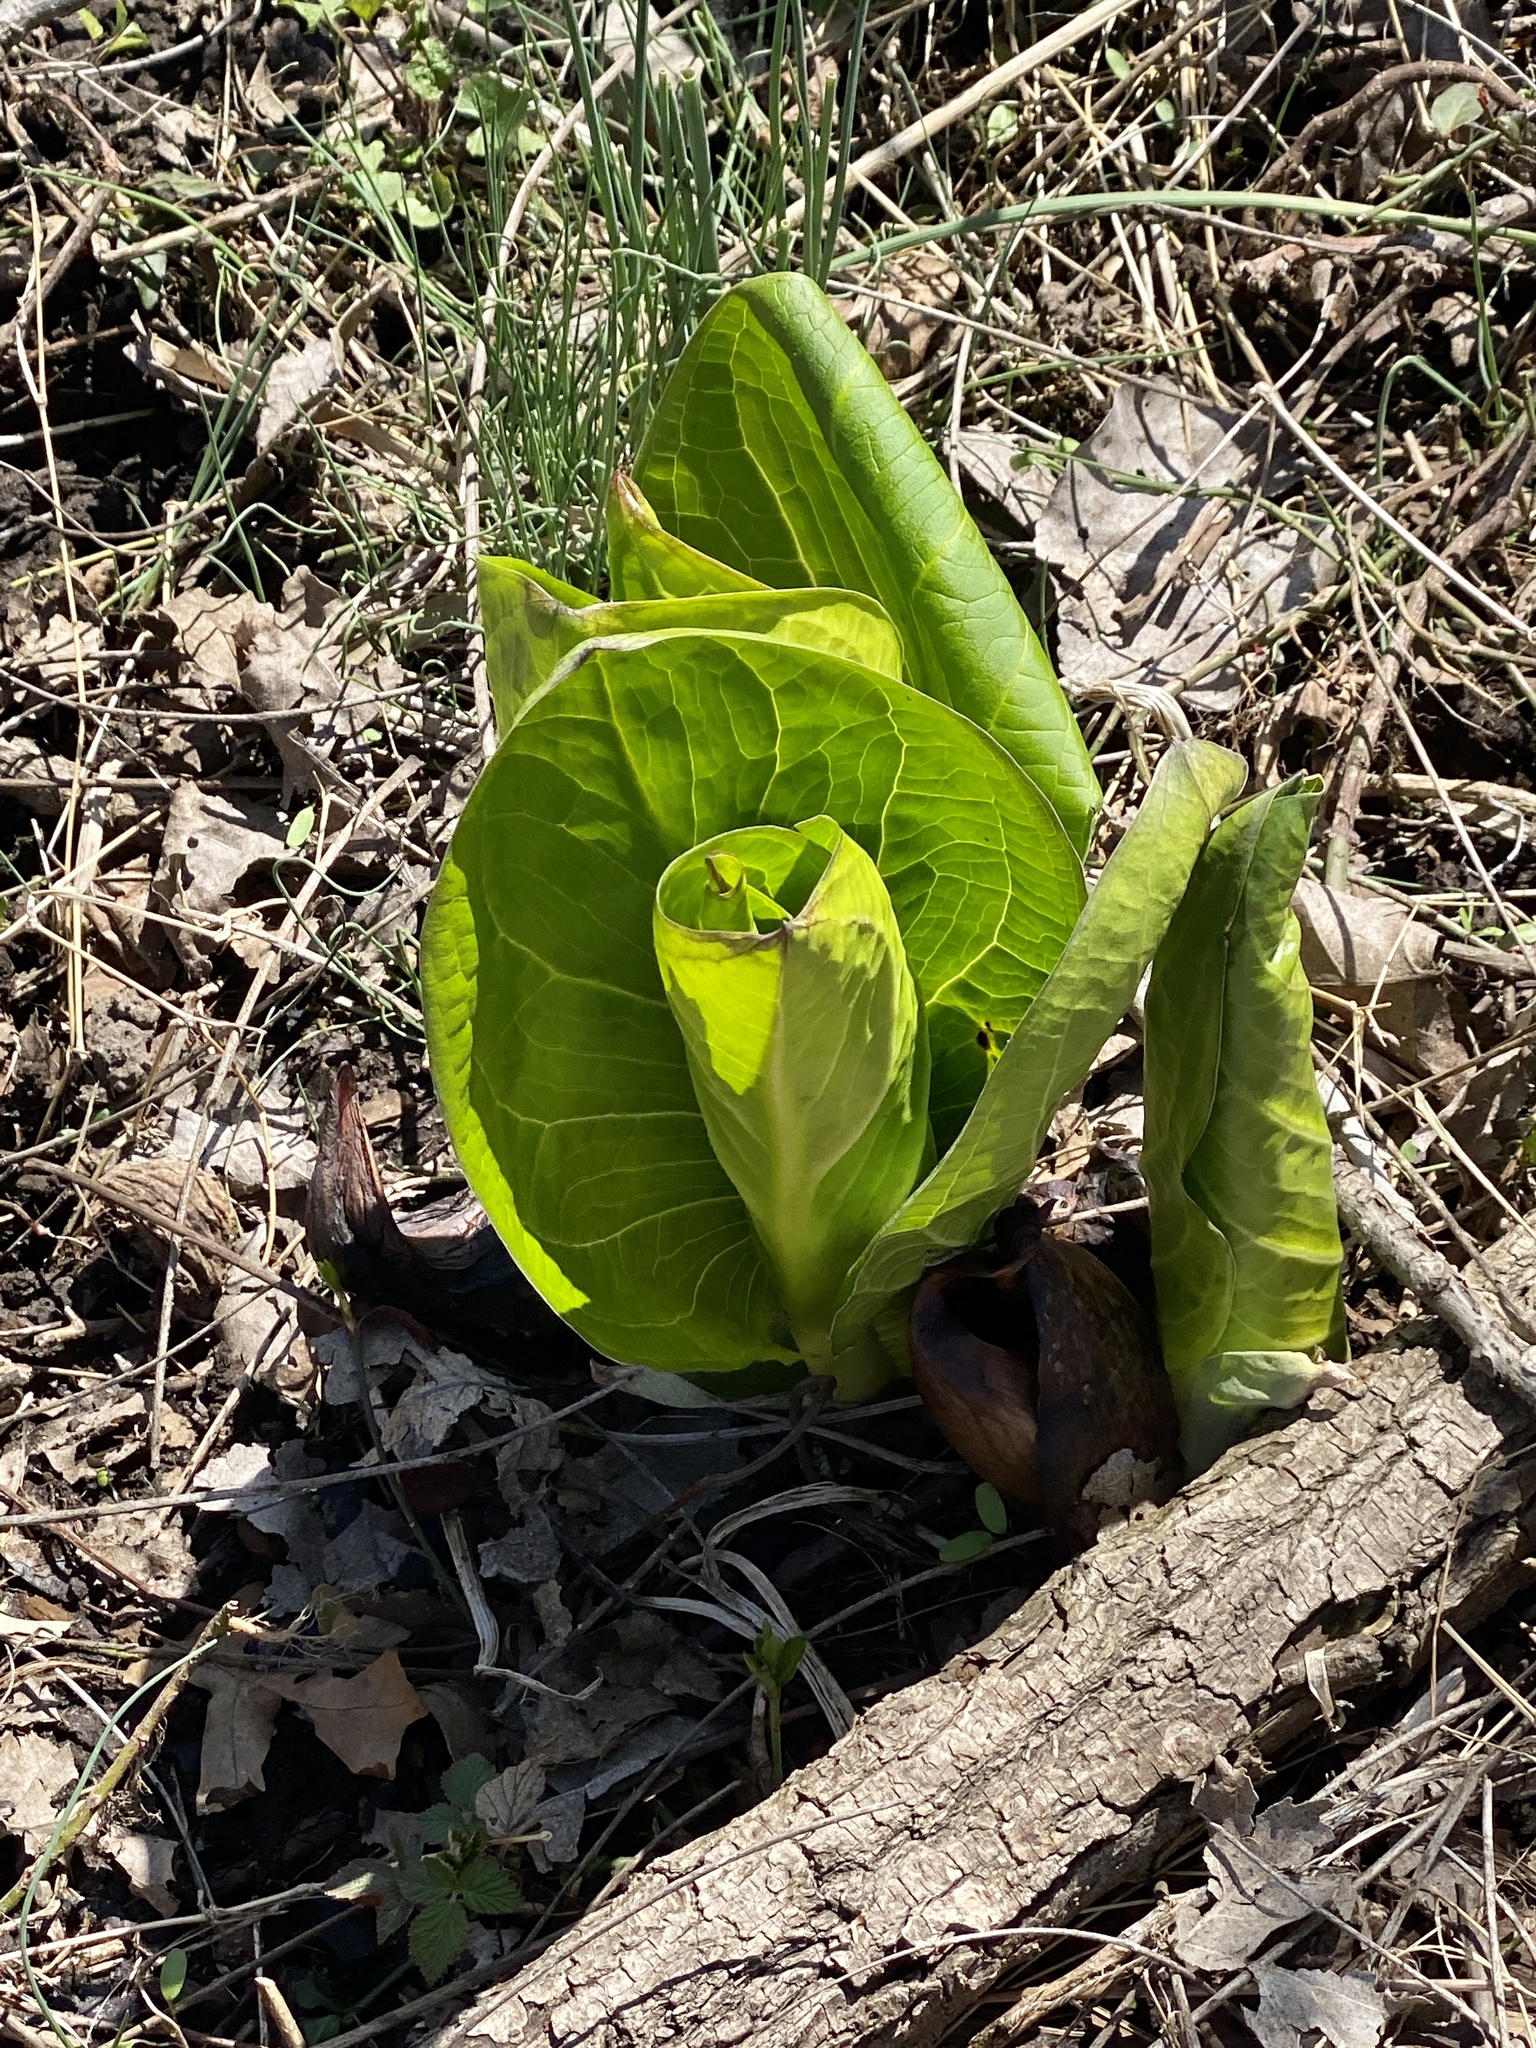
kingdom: Plantae
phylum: Tracheophyta
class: Liliopsida
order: Alismatales
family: Araceae
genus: Symplocarpus
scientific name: Symplocarpus foetidus
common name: Eastern skunk cabbage
